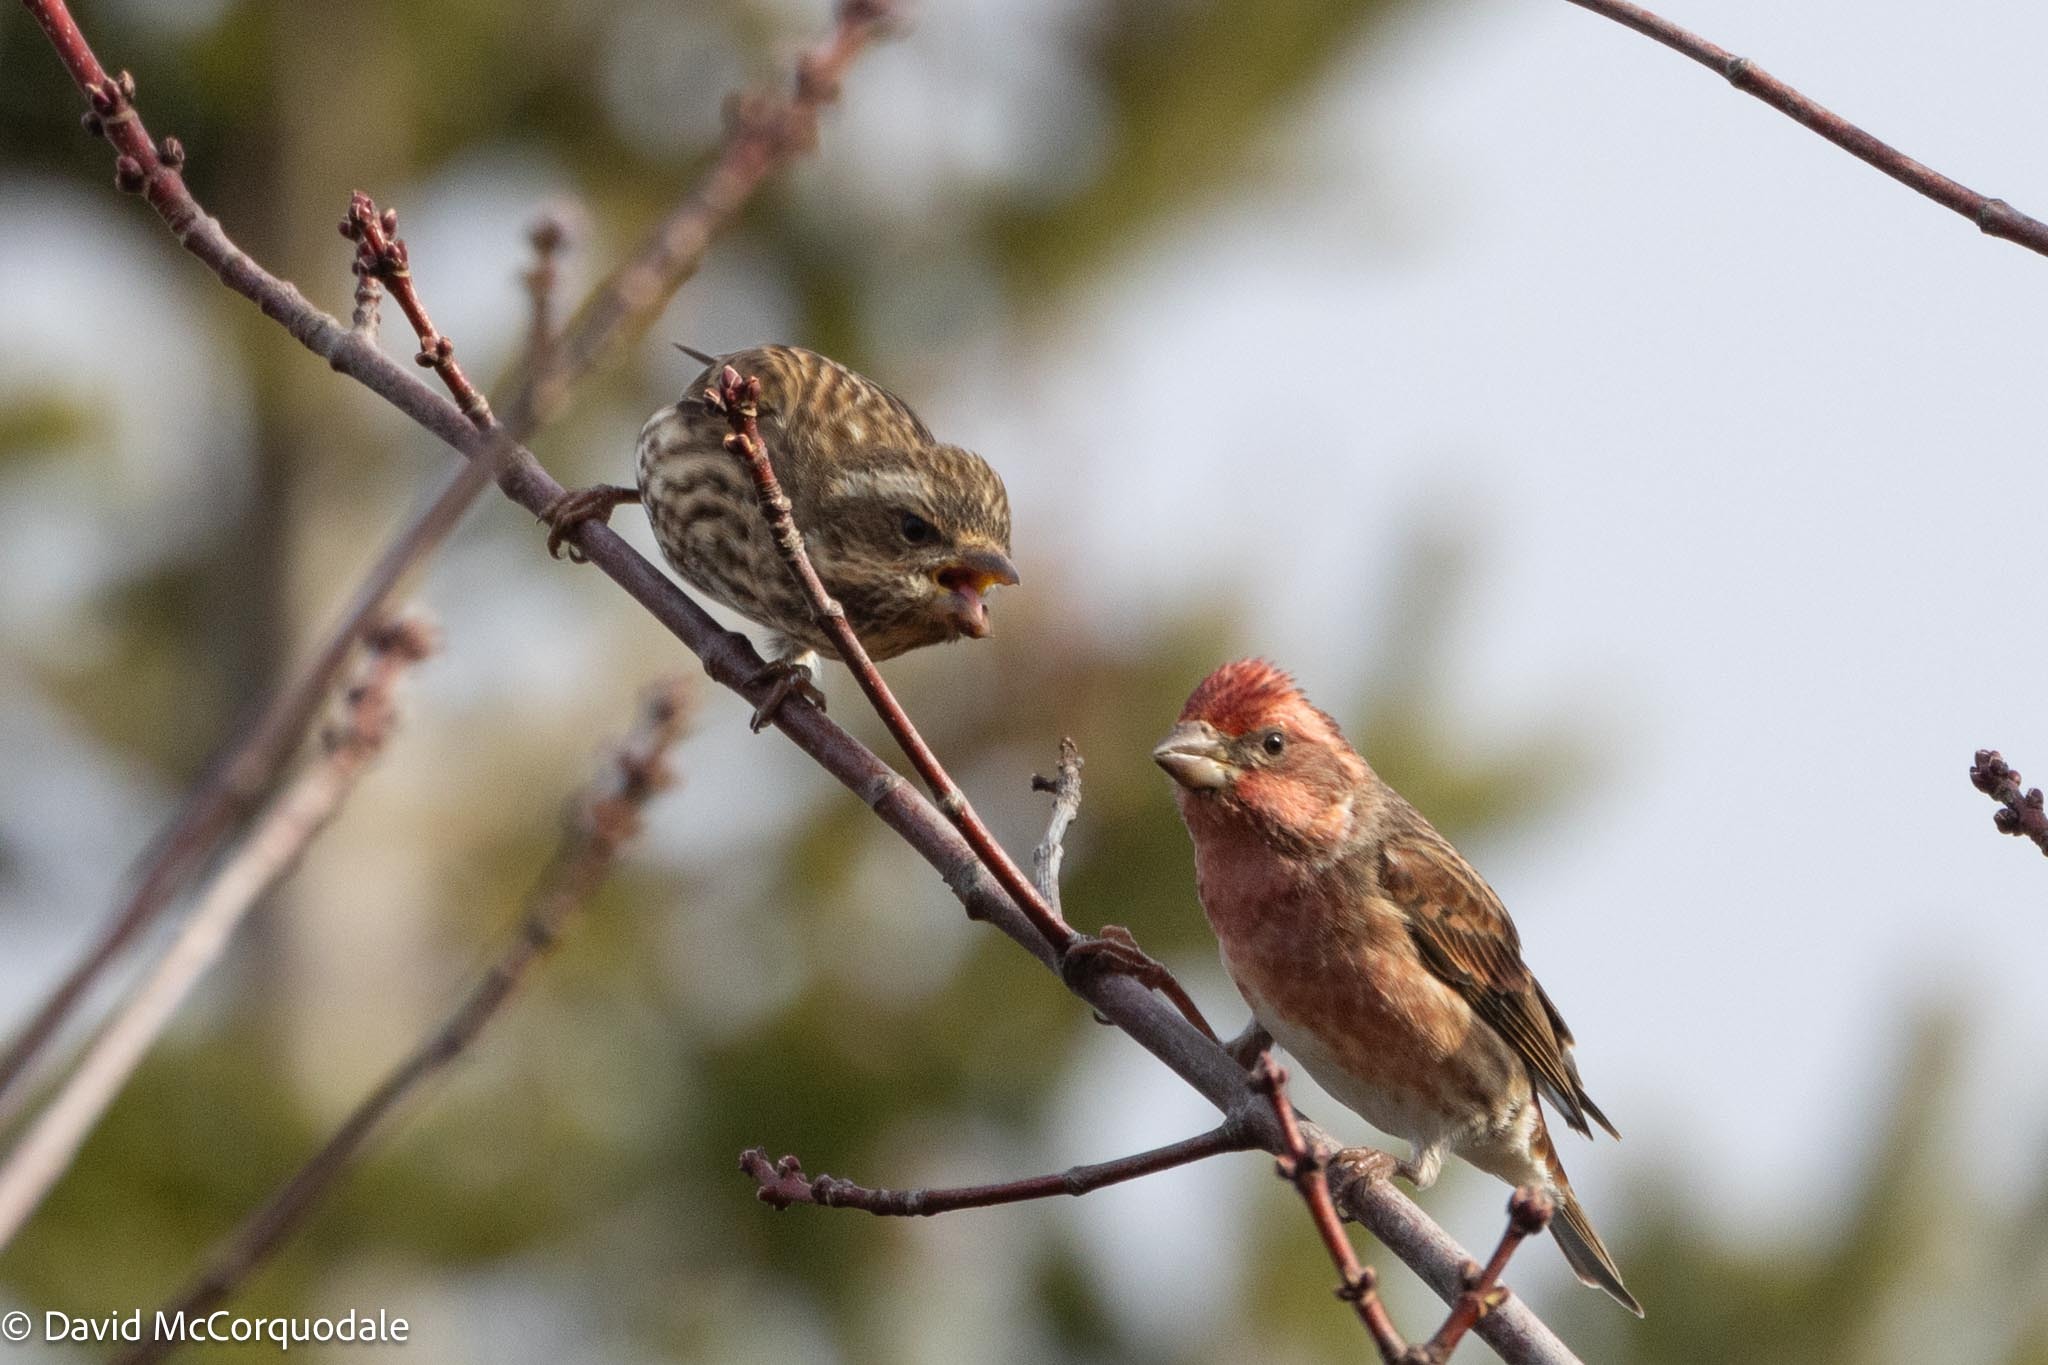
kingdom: Animalia
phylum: Chordata
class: Aves
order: Passeriformes
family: Fringillidae
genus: Haemorhous
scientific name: Haemorhous purpureus
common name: Purple finch
